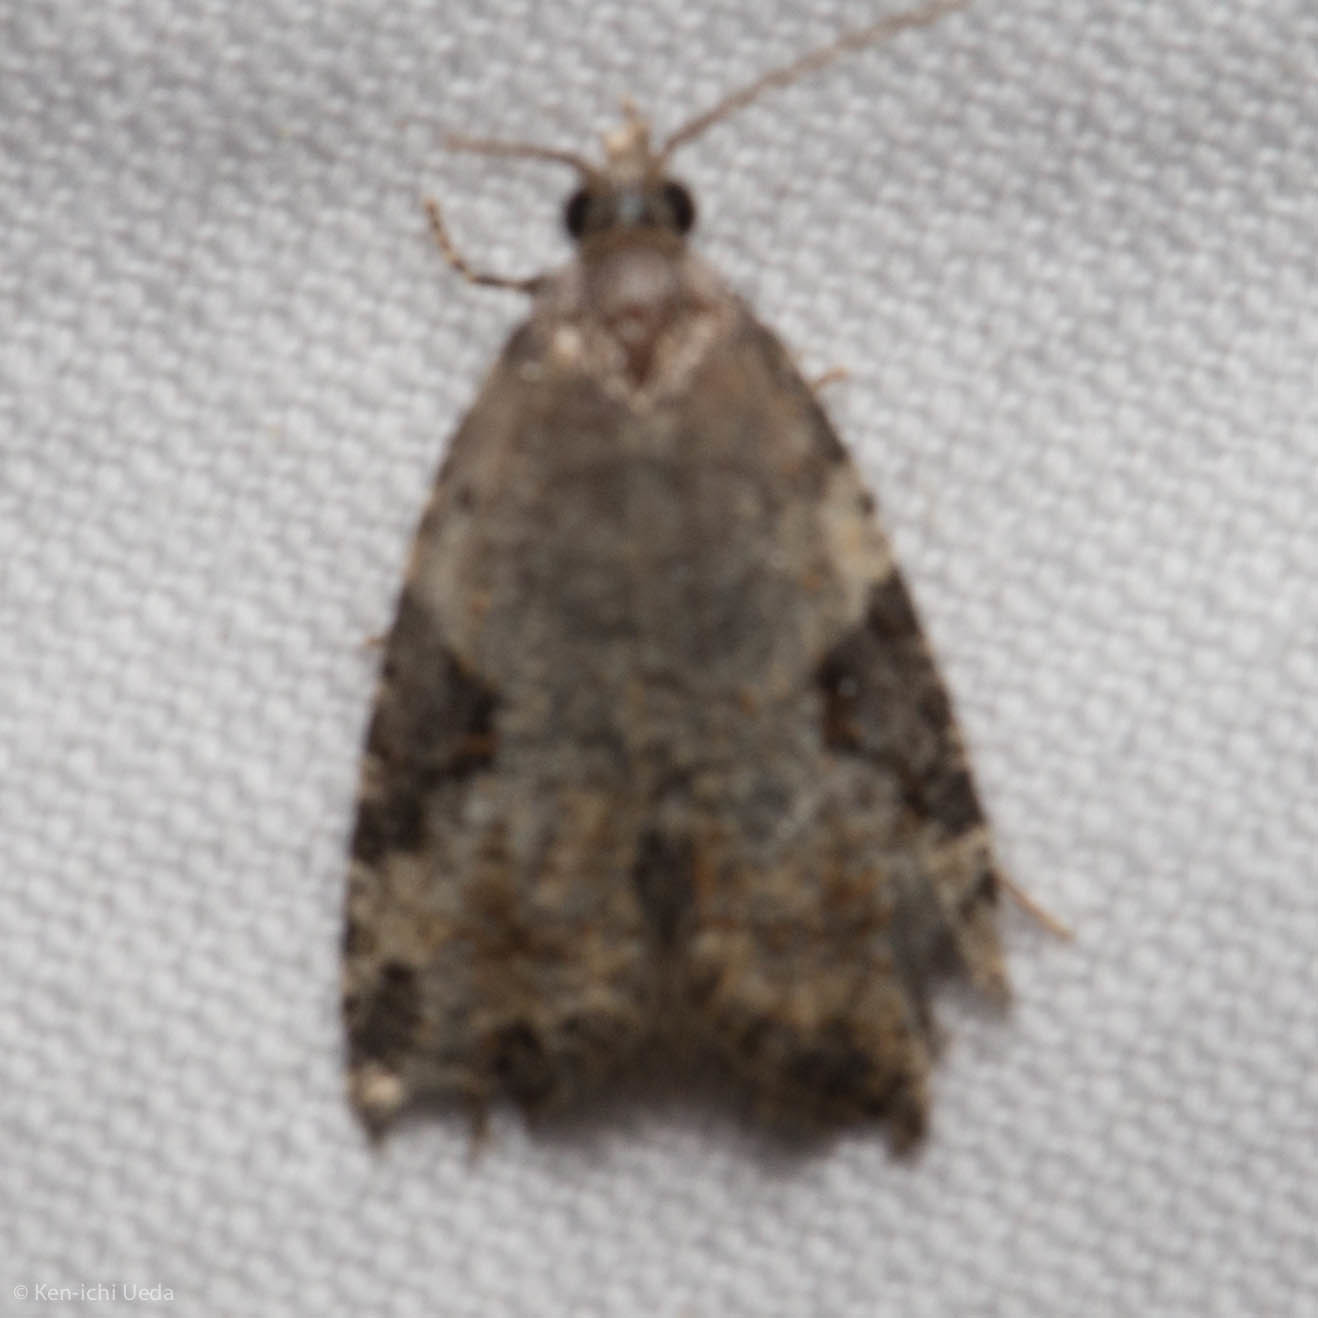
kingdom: Animalia
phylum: Arthropoda
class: Insecta
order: Lepidoptera
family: Tortricidae
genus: Anopina
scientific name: Anopina triangulana
